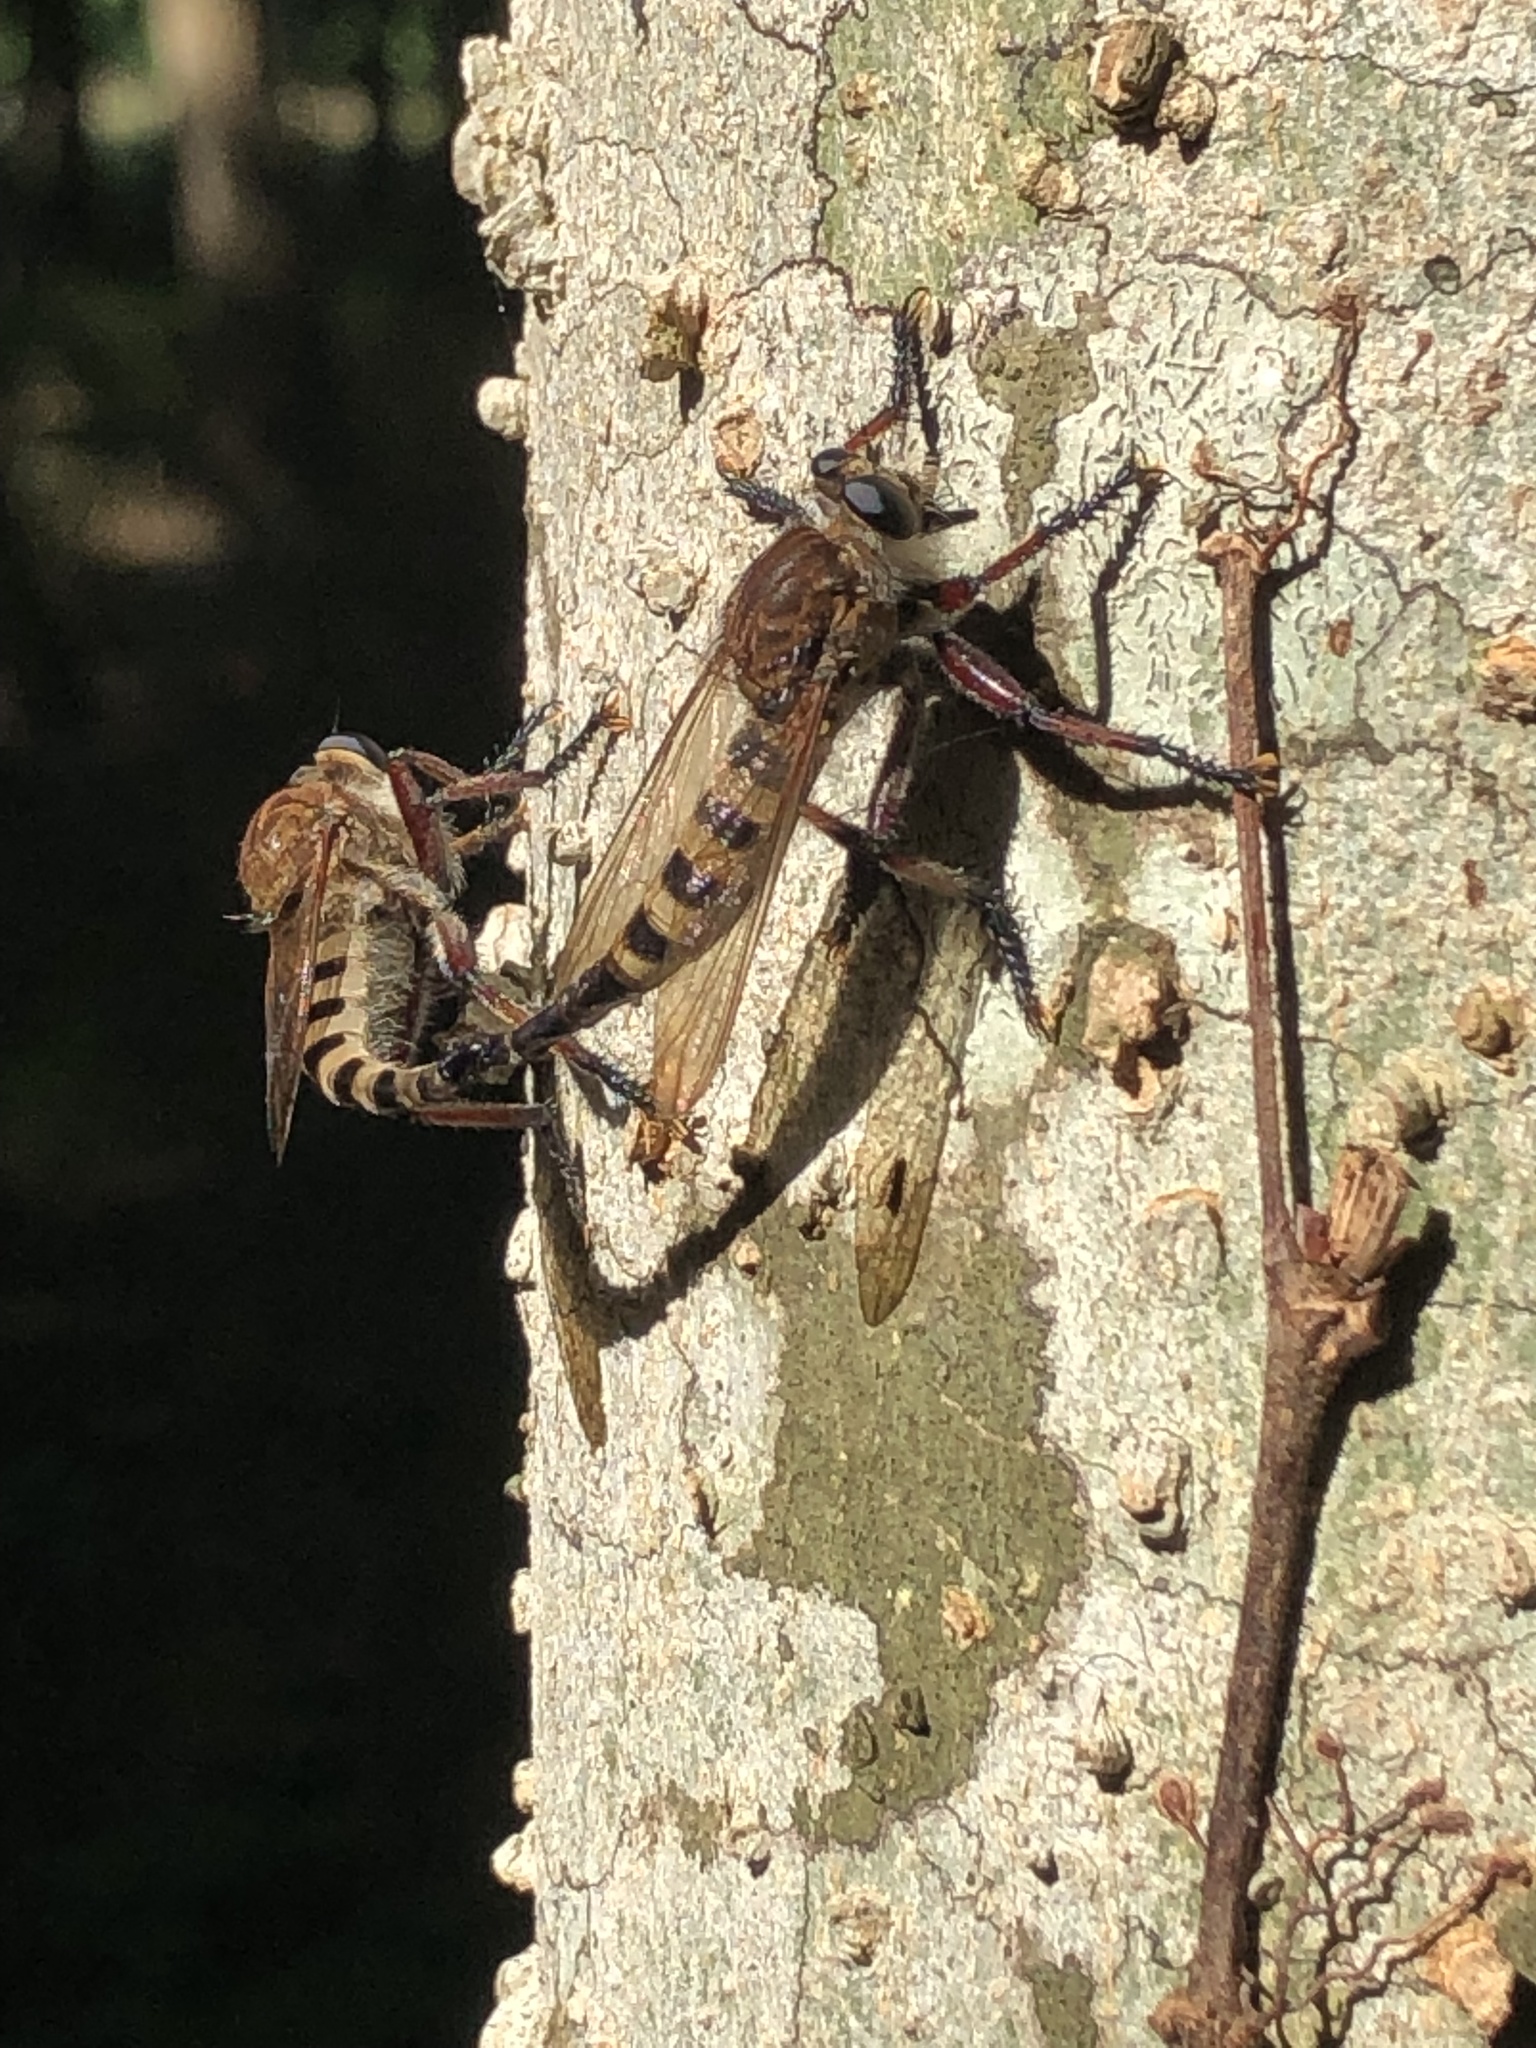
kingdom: Animalia
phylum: Arthropoda
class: Insecta
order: Diptera
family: Asilidae
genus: Promachus
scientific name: Promachus hinei
